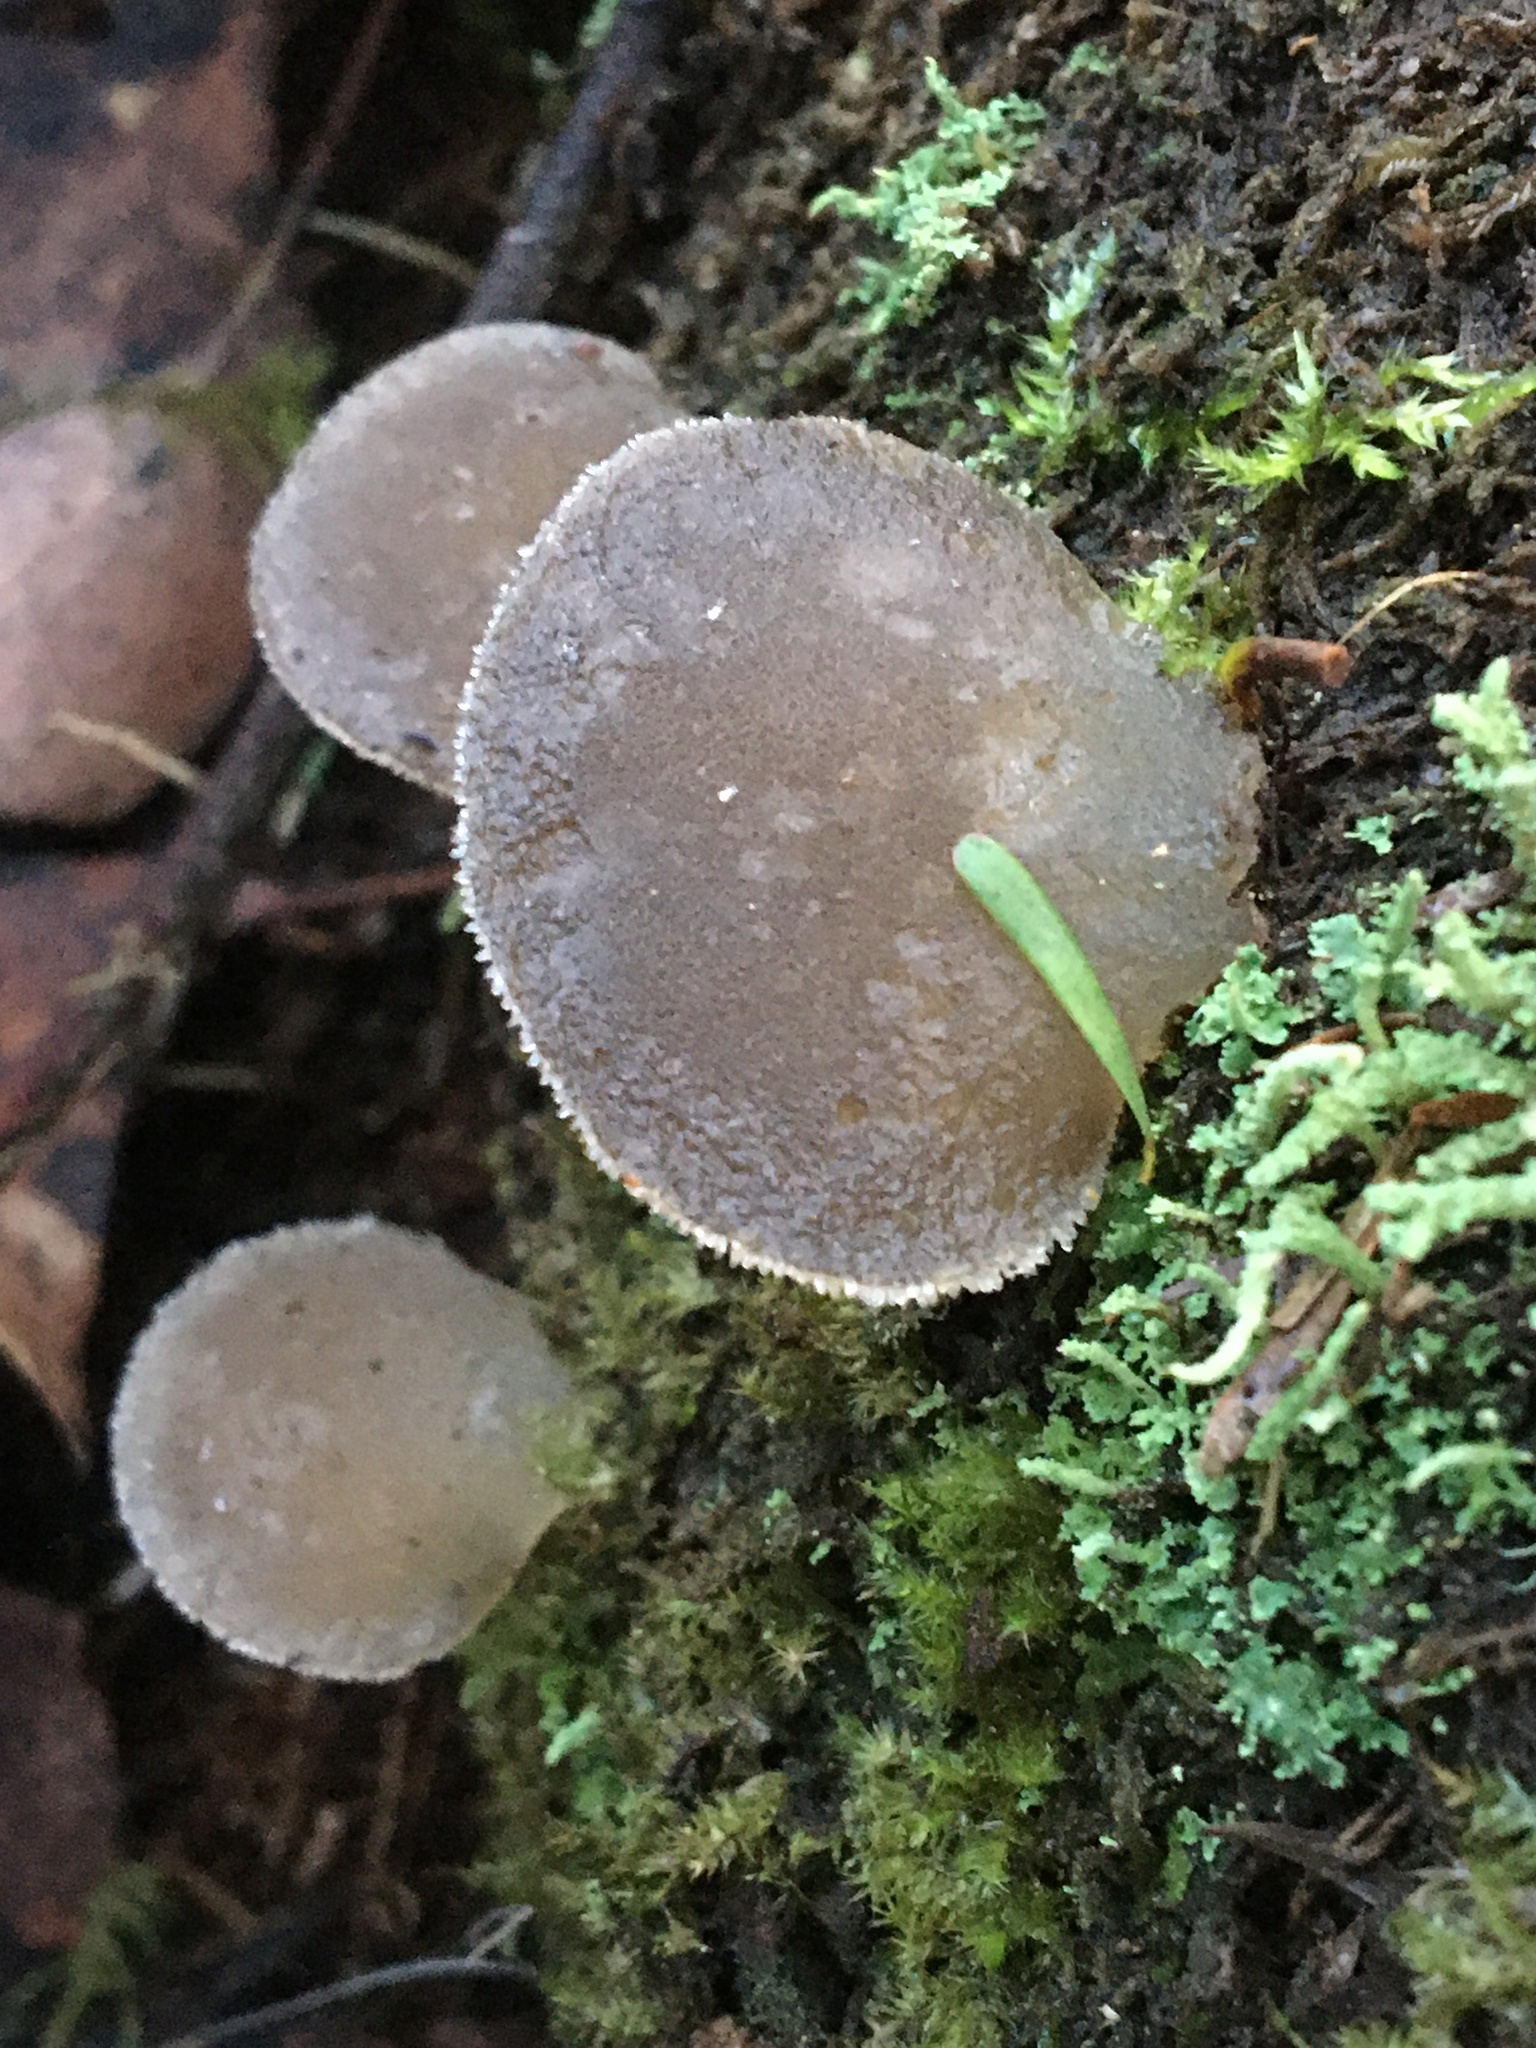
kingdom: Fungi
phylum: Basidiomycota
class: Agaricomycetes
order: Auriculariales
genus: Pseudohydnum
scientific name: Pseudohydnum gelatinosum
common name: Jelly tongue
